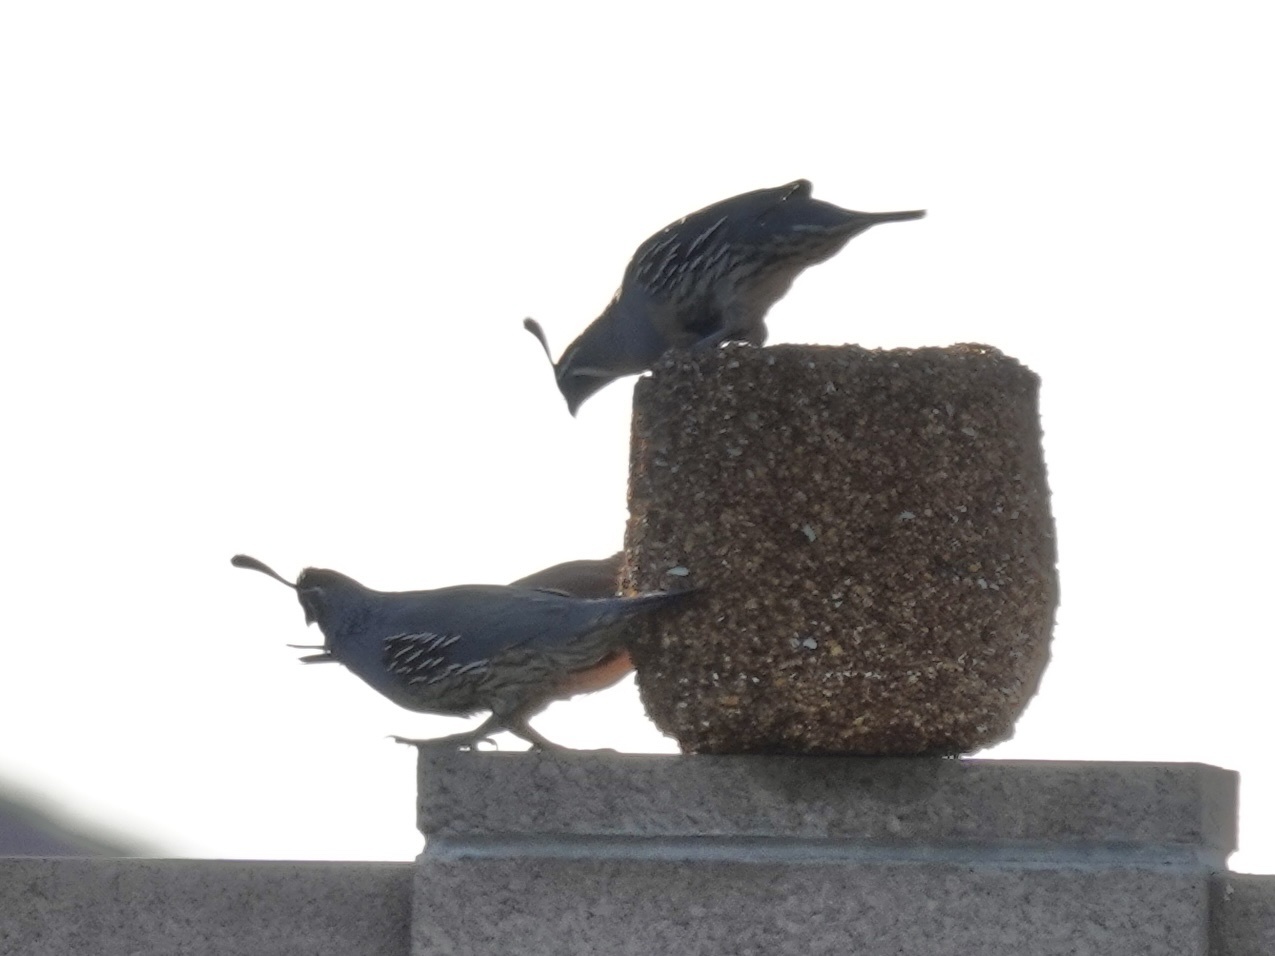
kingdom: Animalia
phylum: Chordata
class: Aves
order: Galliformes
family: Odontophoridae
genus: Callipepla
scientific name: Callipepla gambelii
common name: Gambel's quail
